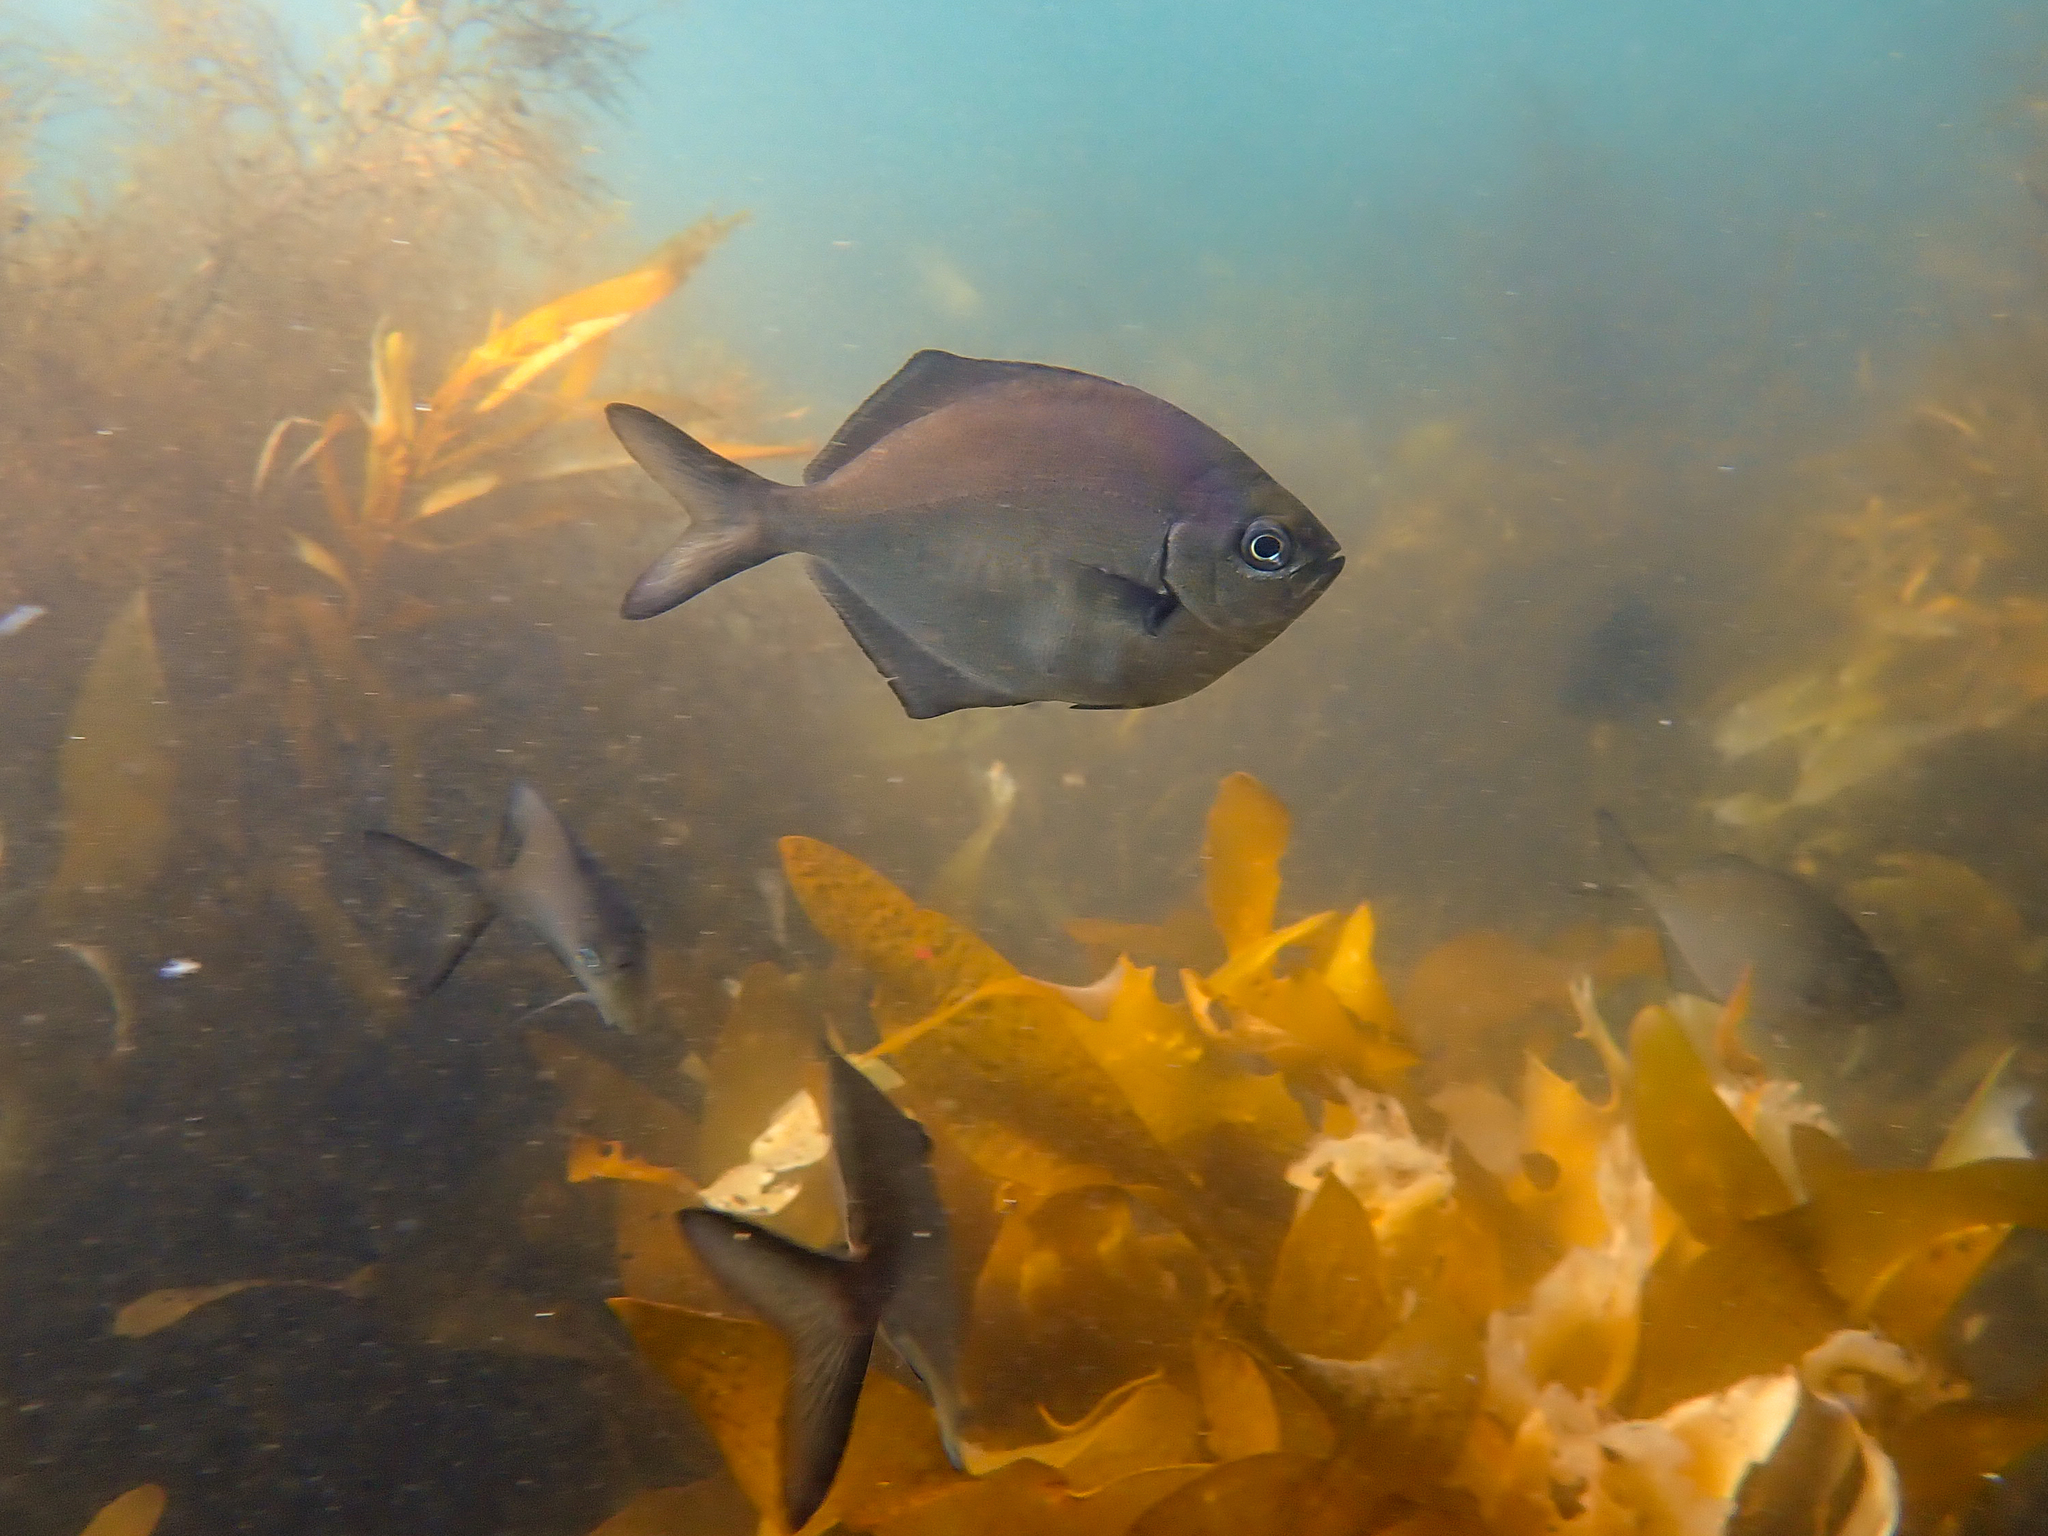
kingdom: Animalia
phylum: Chordata
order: Perciformes
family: Kyphosidae
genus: Scorpis
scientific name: Scorpis lineolata
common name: Sweep
